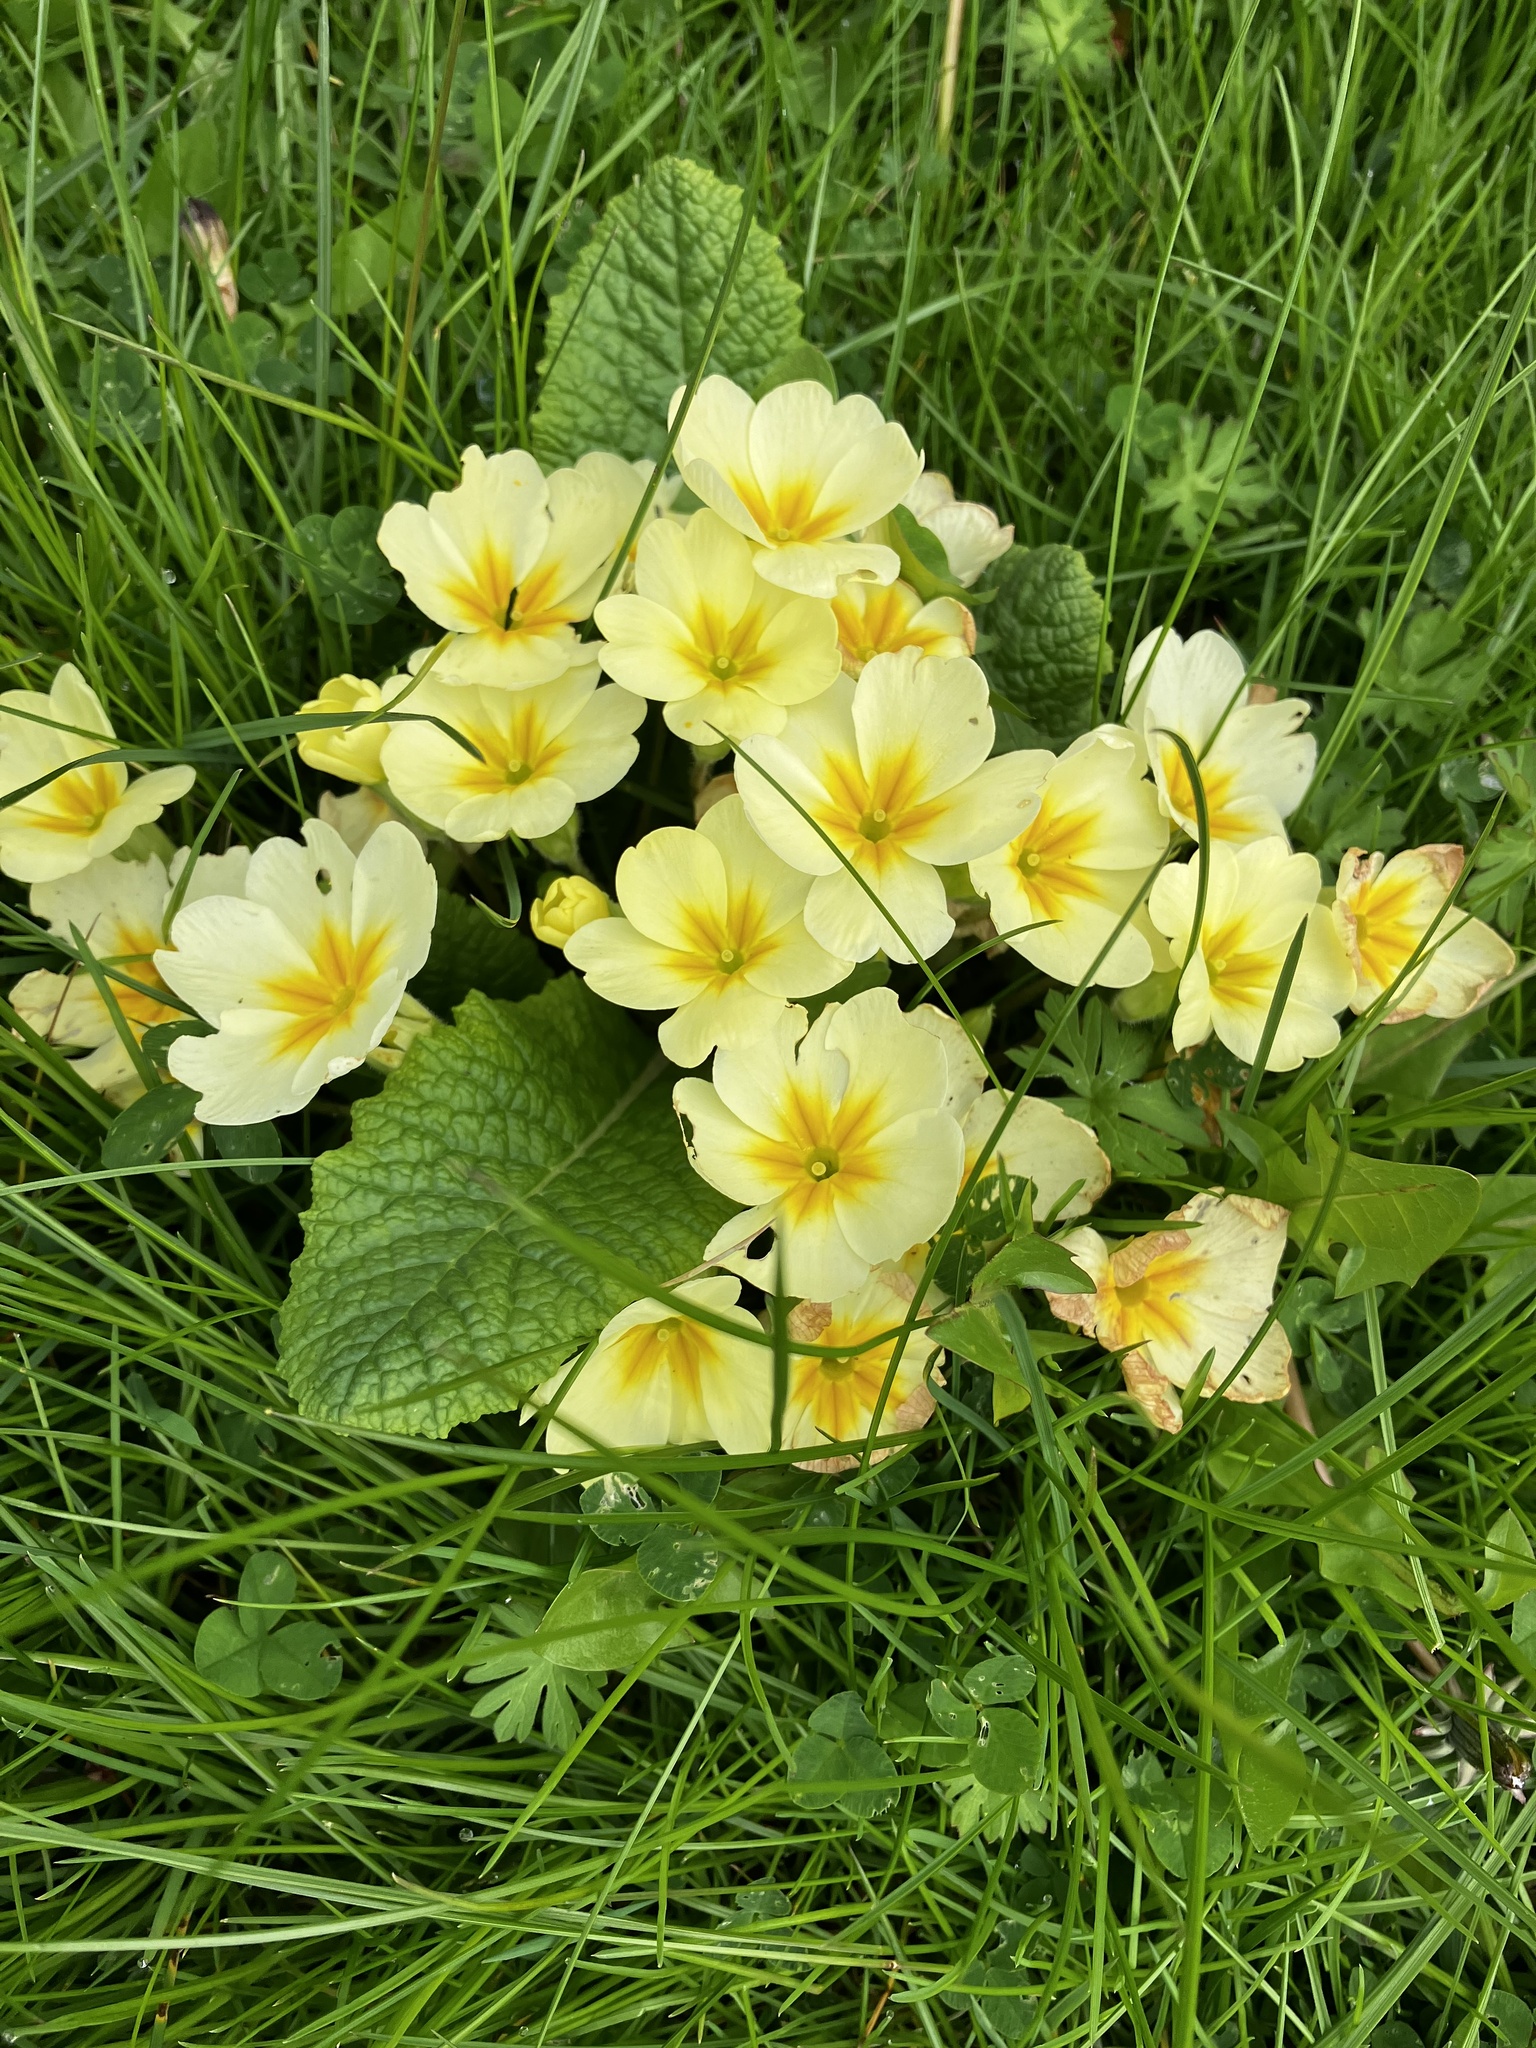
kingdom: Plantae
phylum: Tracheophyta
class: Magnoliopsida
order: Ericales
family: Primulaceae
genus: Primula
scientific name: Primula vulgaris
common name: Primrose
